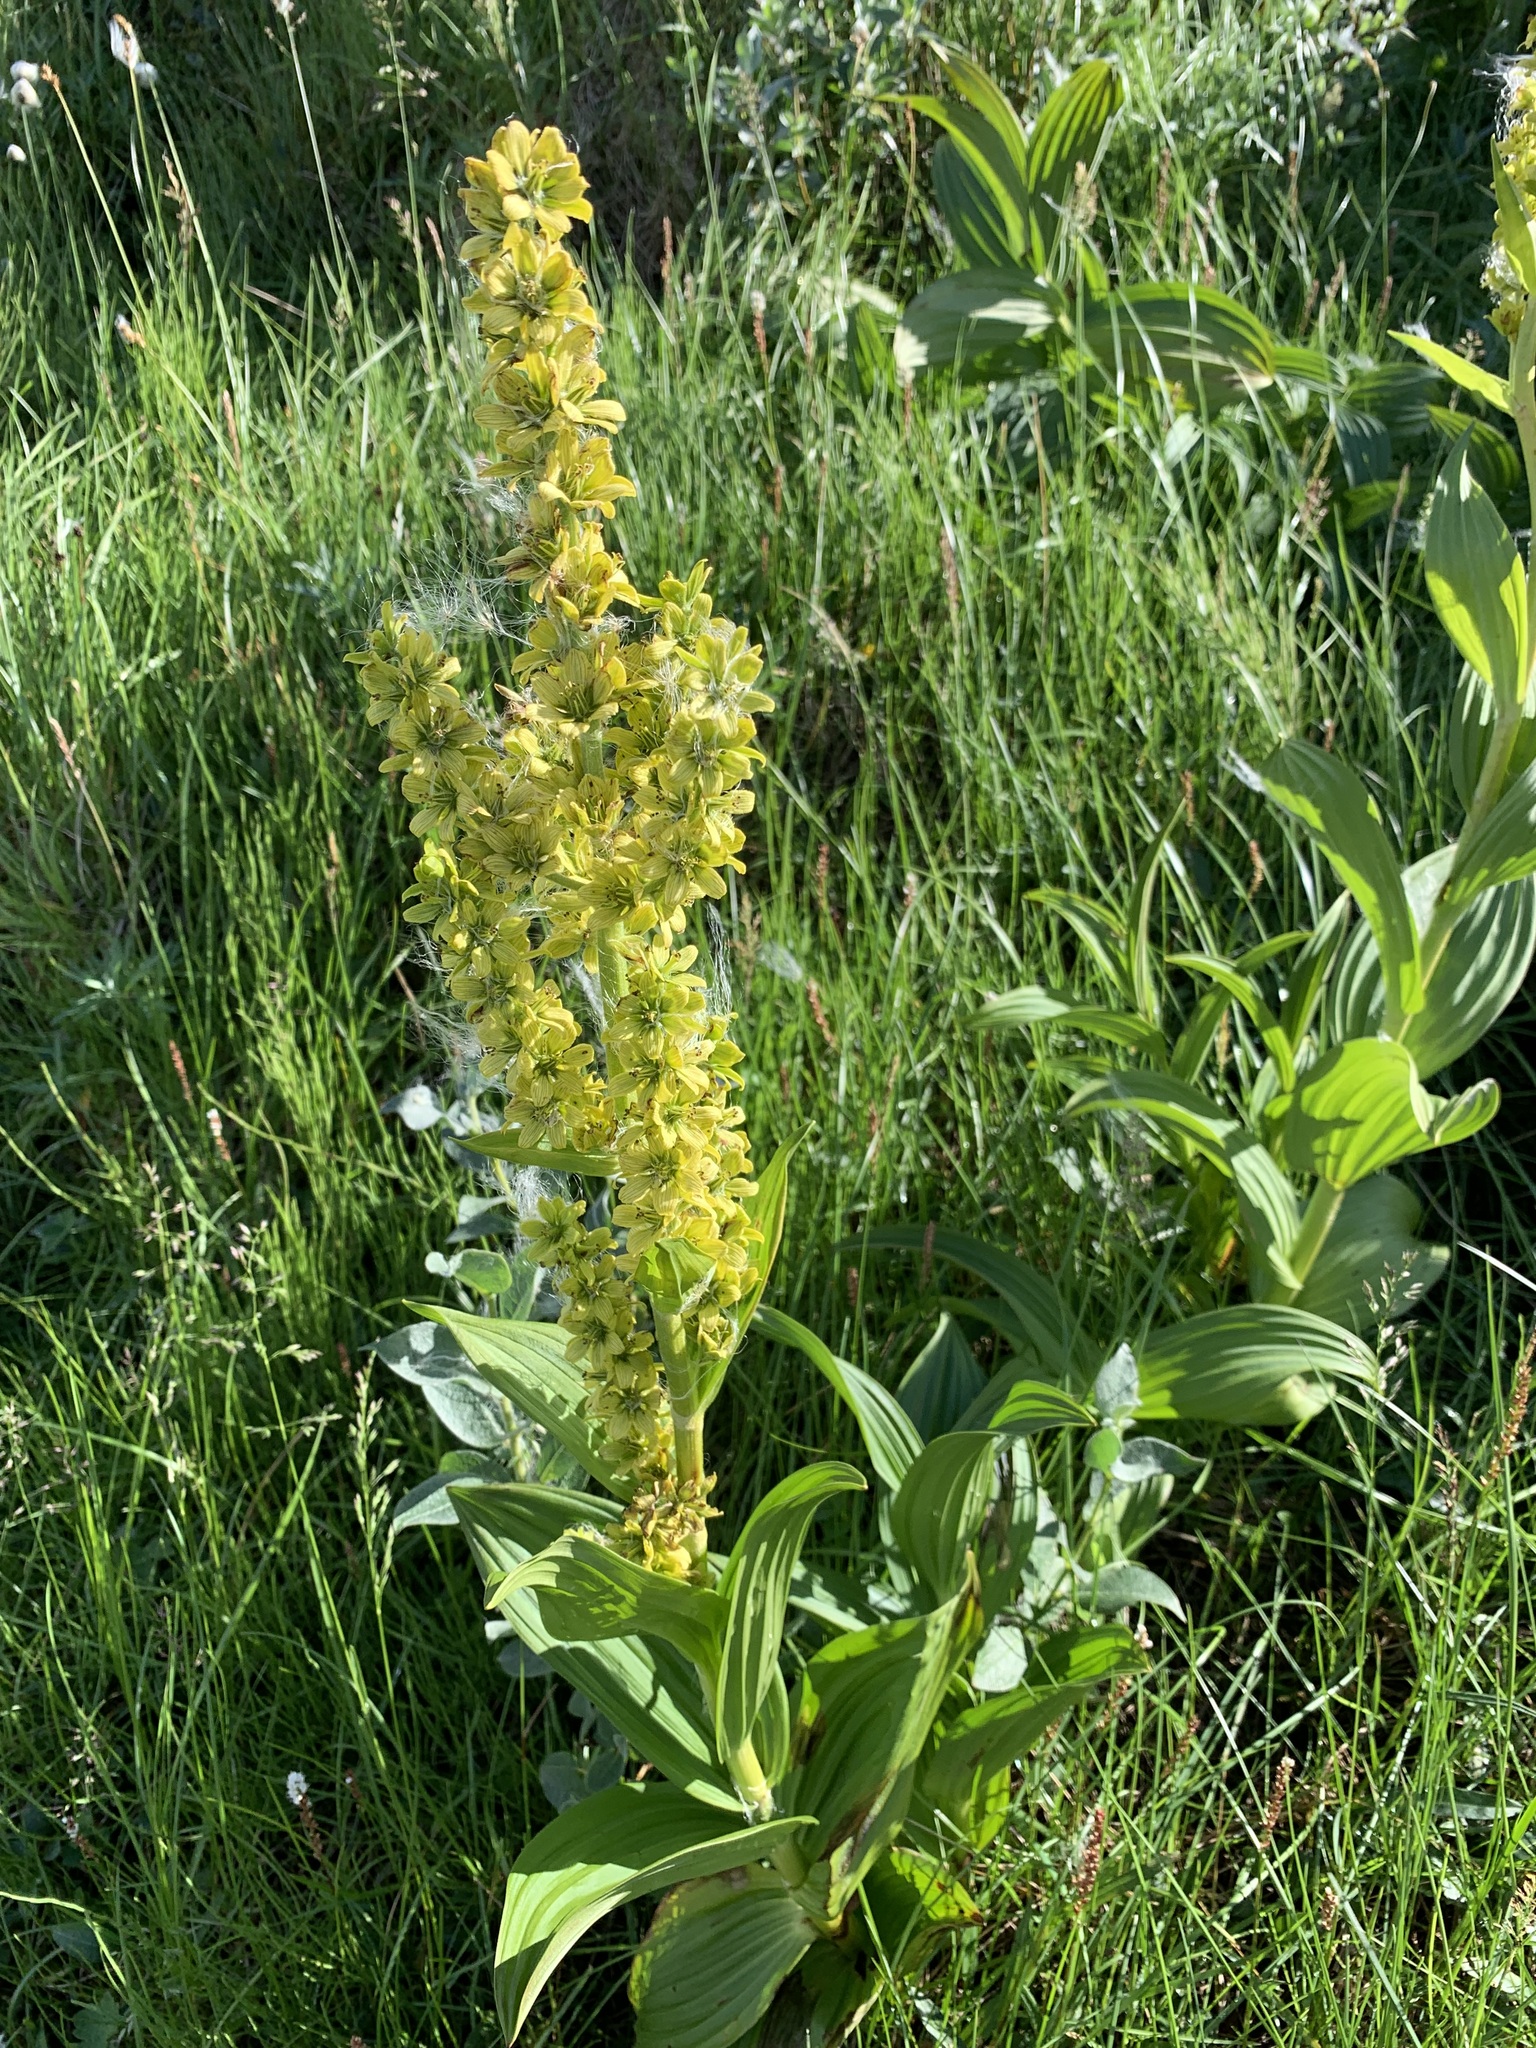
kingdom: Plantae
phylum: Tracheophyta
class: Liliopsida
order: Liliales
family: Melanthiaceae
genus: Veratrum
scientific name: Veratrum lobelianum
